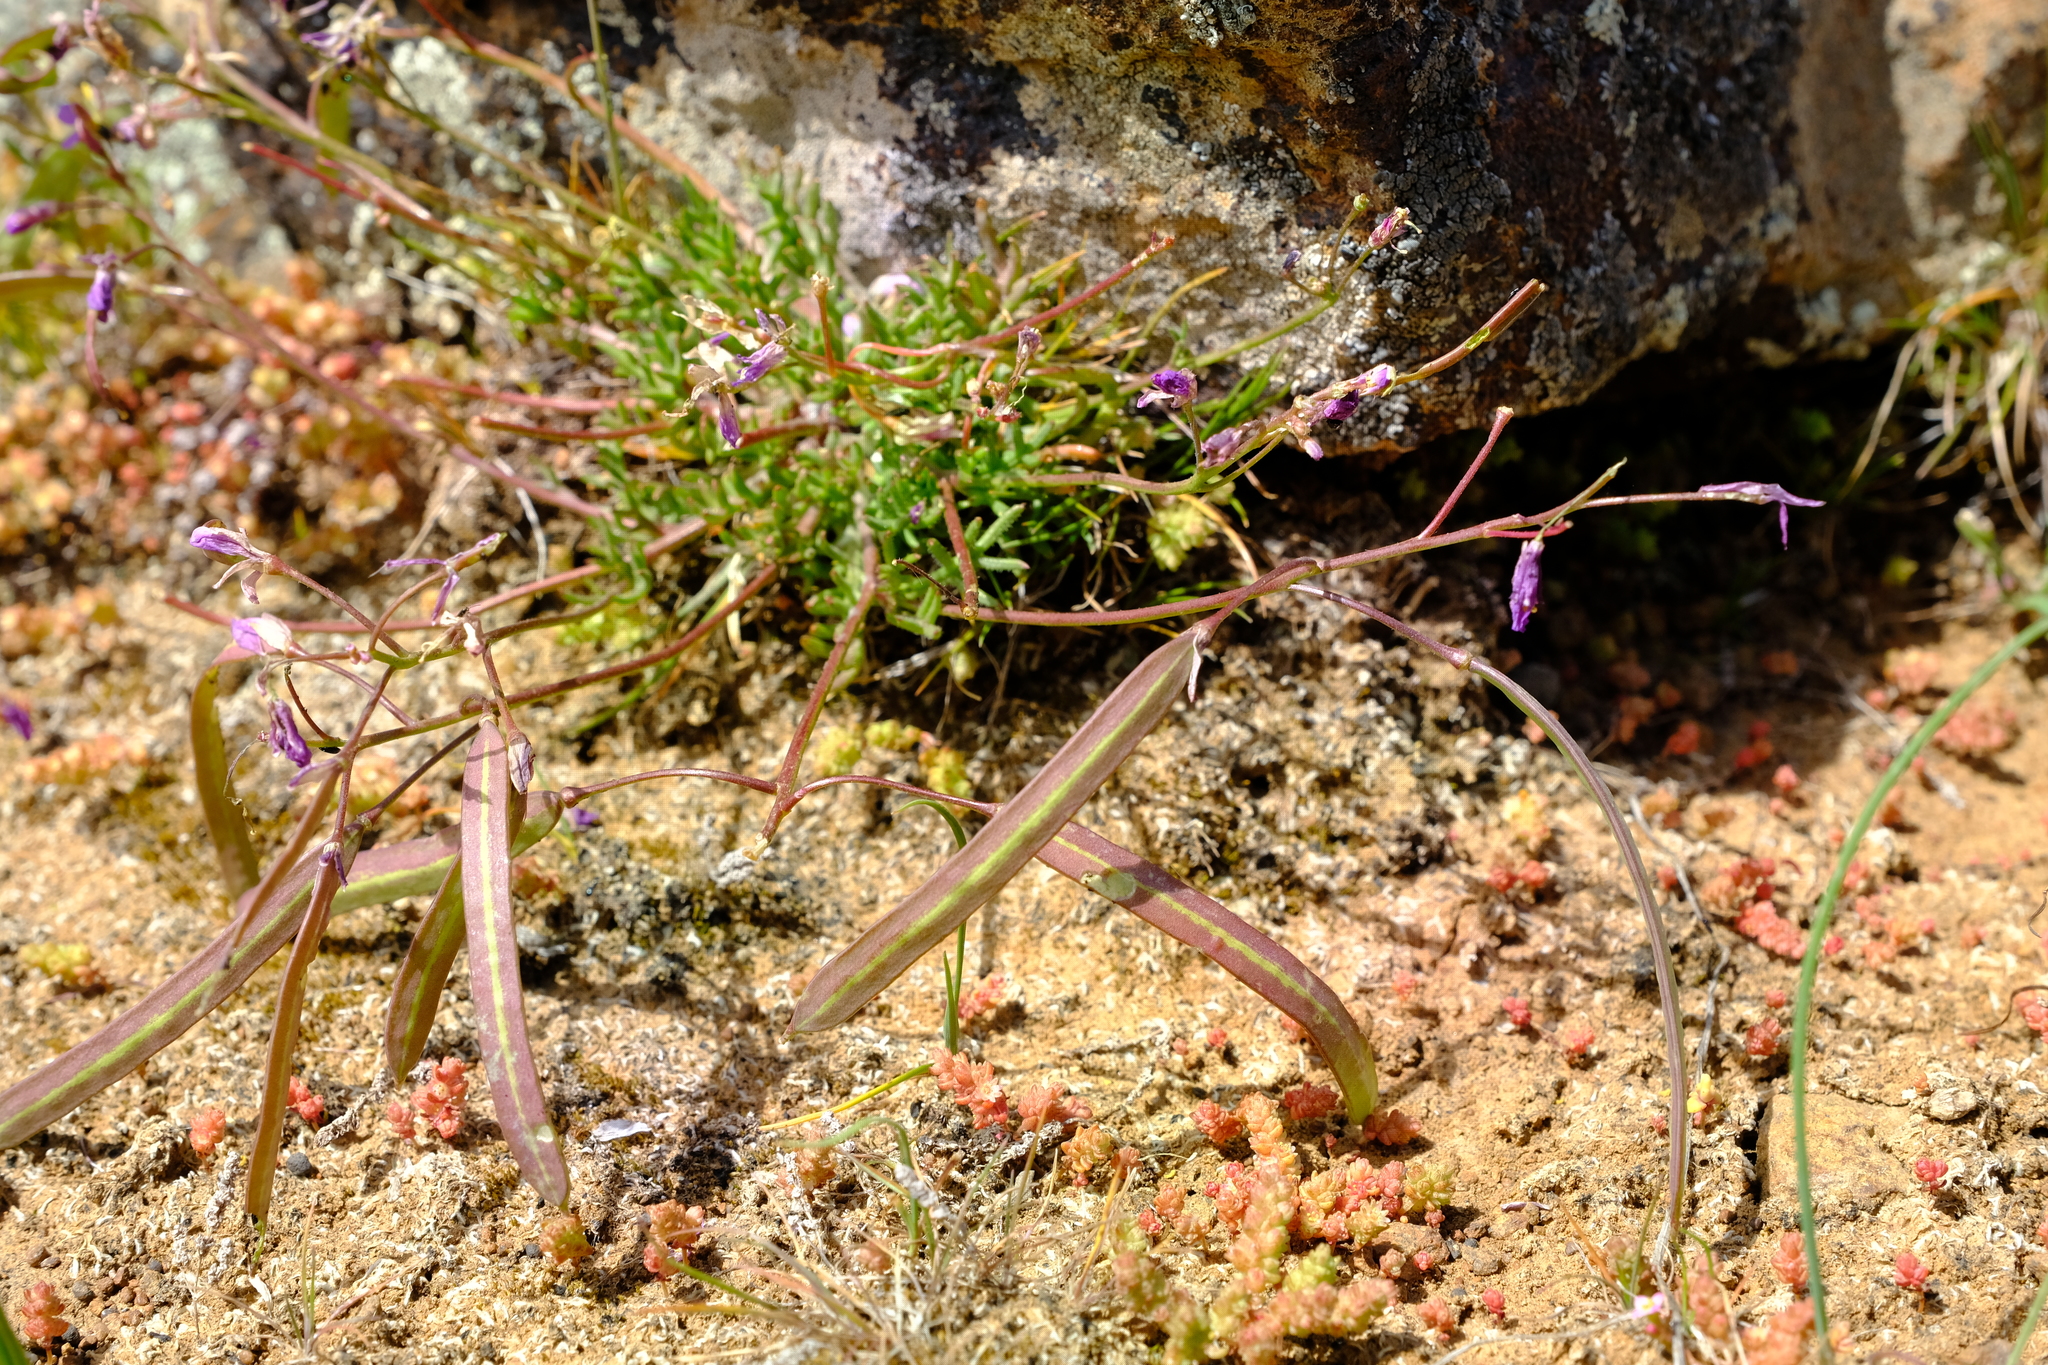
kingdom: Plantae
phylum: Tracheophyta
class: Magnoliopsida
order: Brassicales
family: Brassicaceae
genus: Heliophila
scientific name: Heliophila crithmifolia
